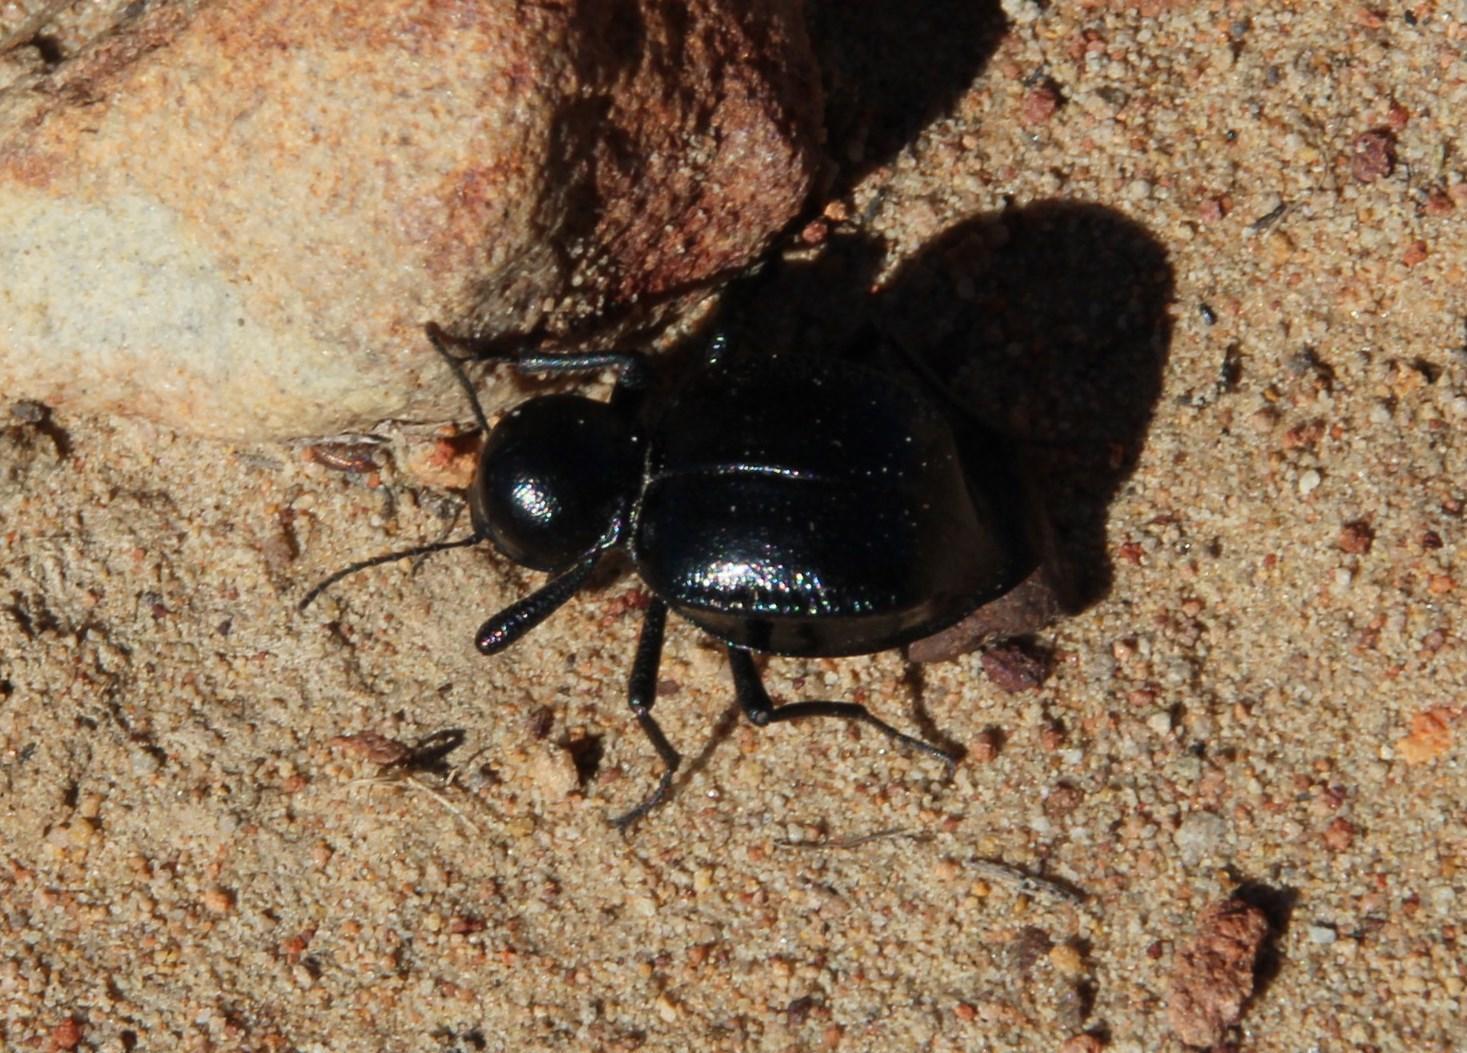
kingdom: Animalia
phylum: Arthropoda
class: Insecta
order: Coleoptera
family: Tenebrionidae
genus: Moluris
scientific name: Moluris gibba
